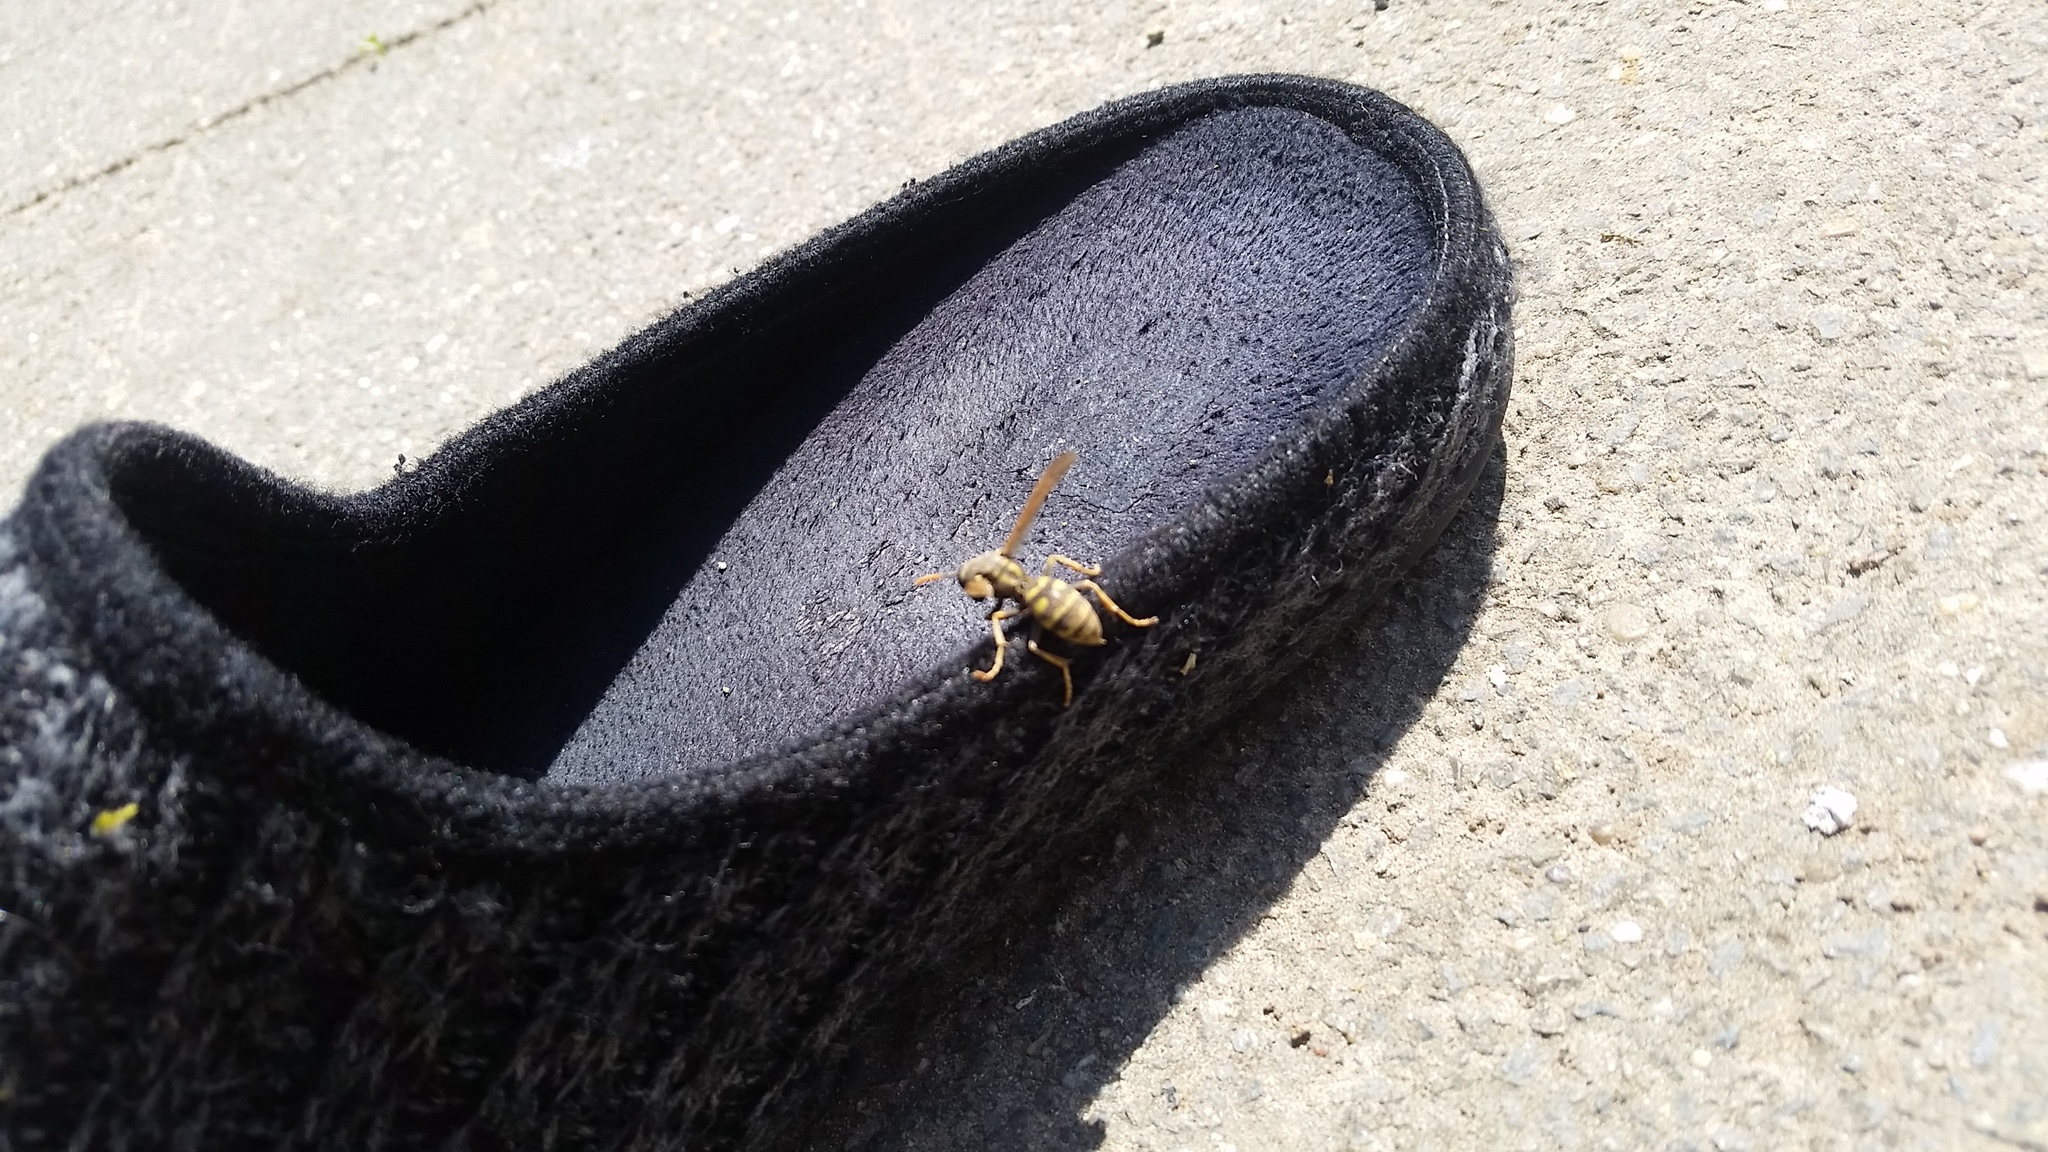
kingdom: Animalia
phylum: Arthropoda
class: Insecta
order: Hymenoptera
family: Eumenidae
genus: Polistes
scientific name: Polistes dominula
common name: Paper wasp
